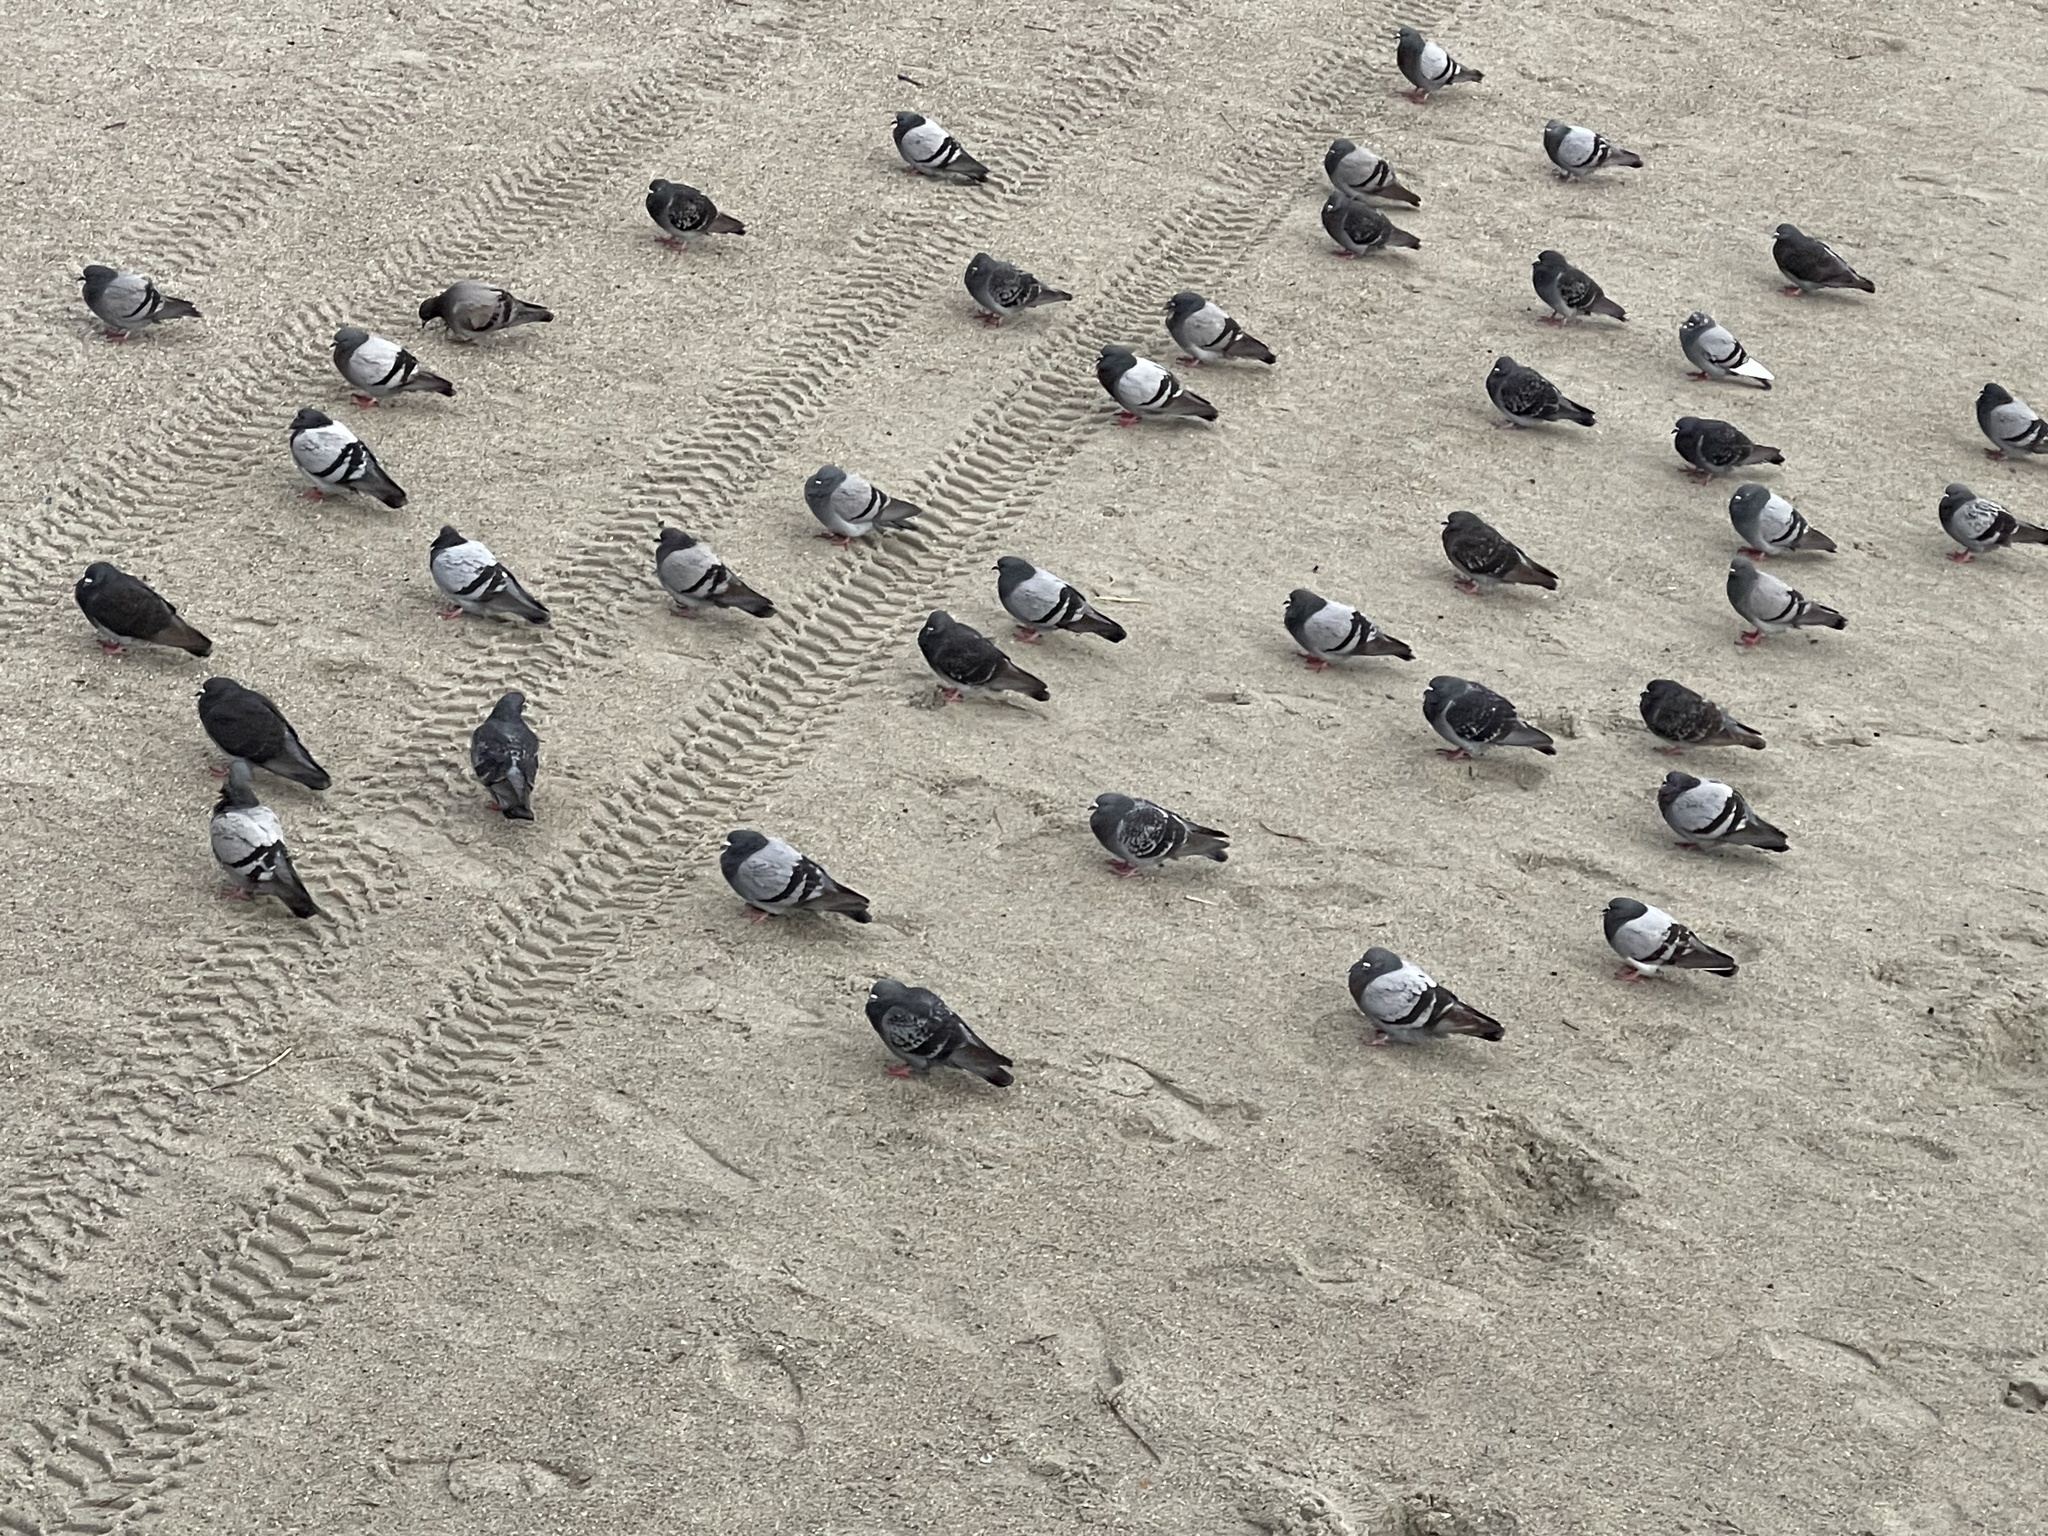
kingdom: Animalia
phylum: Chordata
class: Aves
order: Columbiformes
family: Columbidae
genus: Columba
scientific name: Columba livia
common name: Rock pigeon
